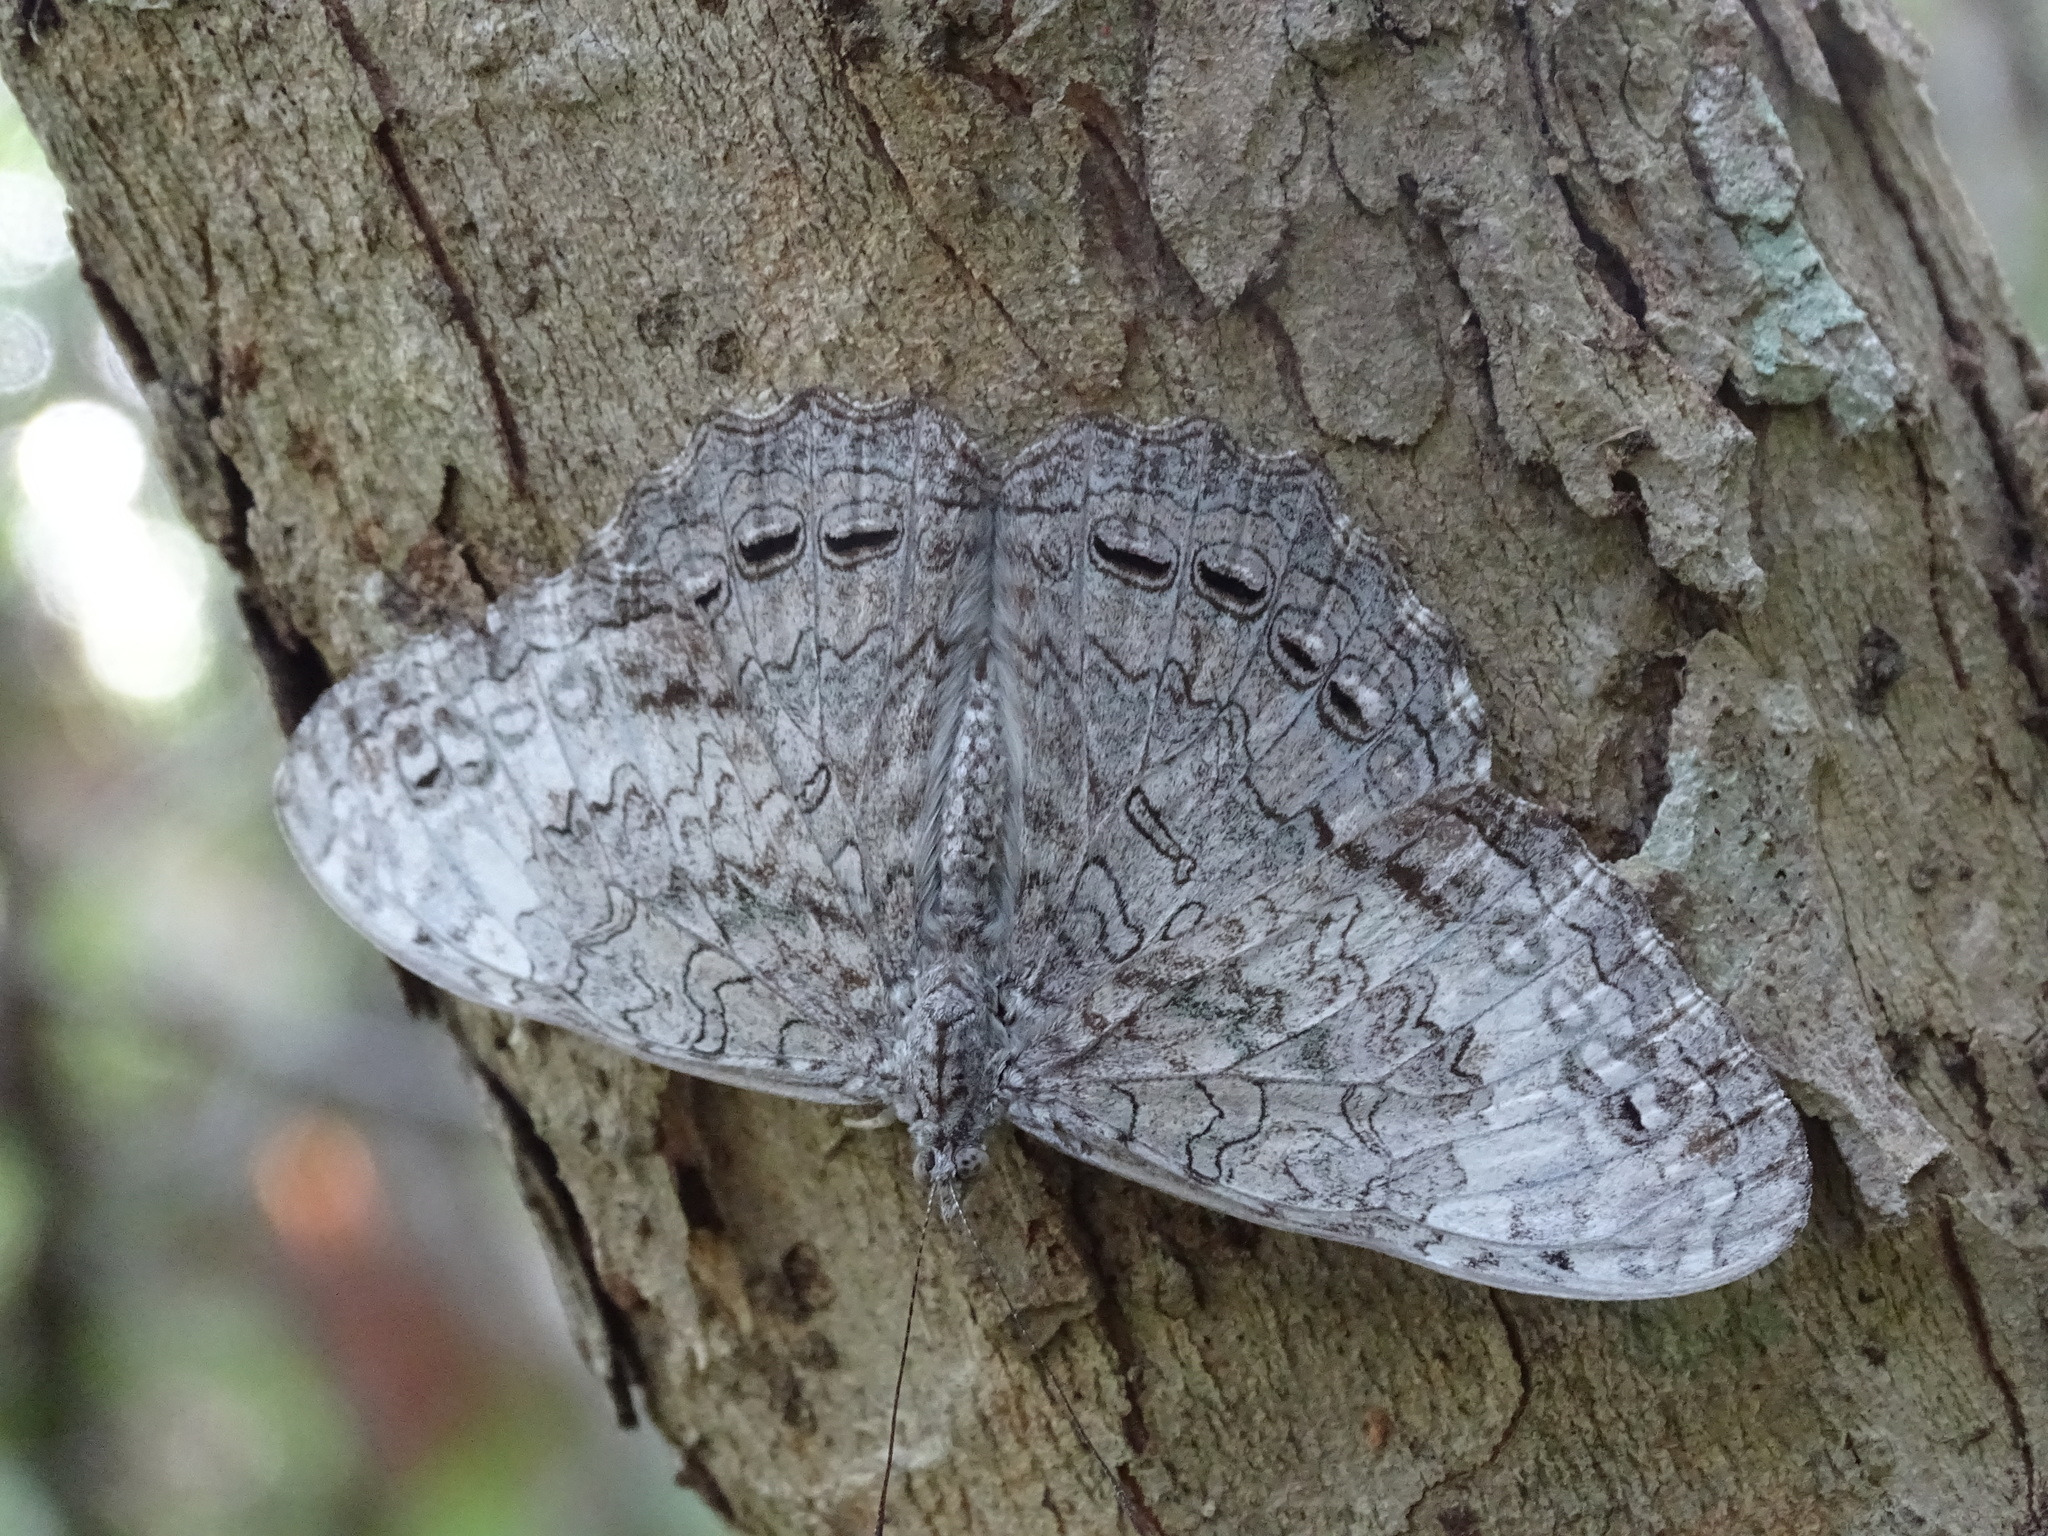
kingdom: Animalia
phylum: Arthropoda
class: Insecta
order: Lepidoptera
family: Nymphalidae
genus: Hamadryas
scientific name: Hamadryas glauconome
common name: Glaucous cracker
